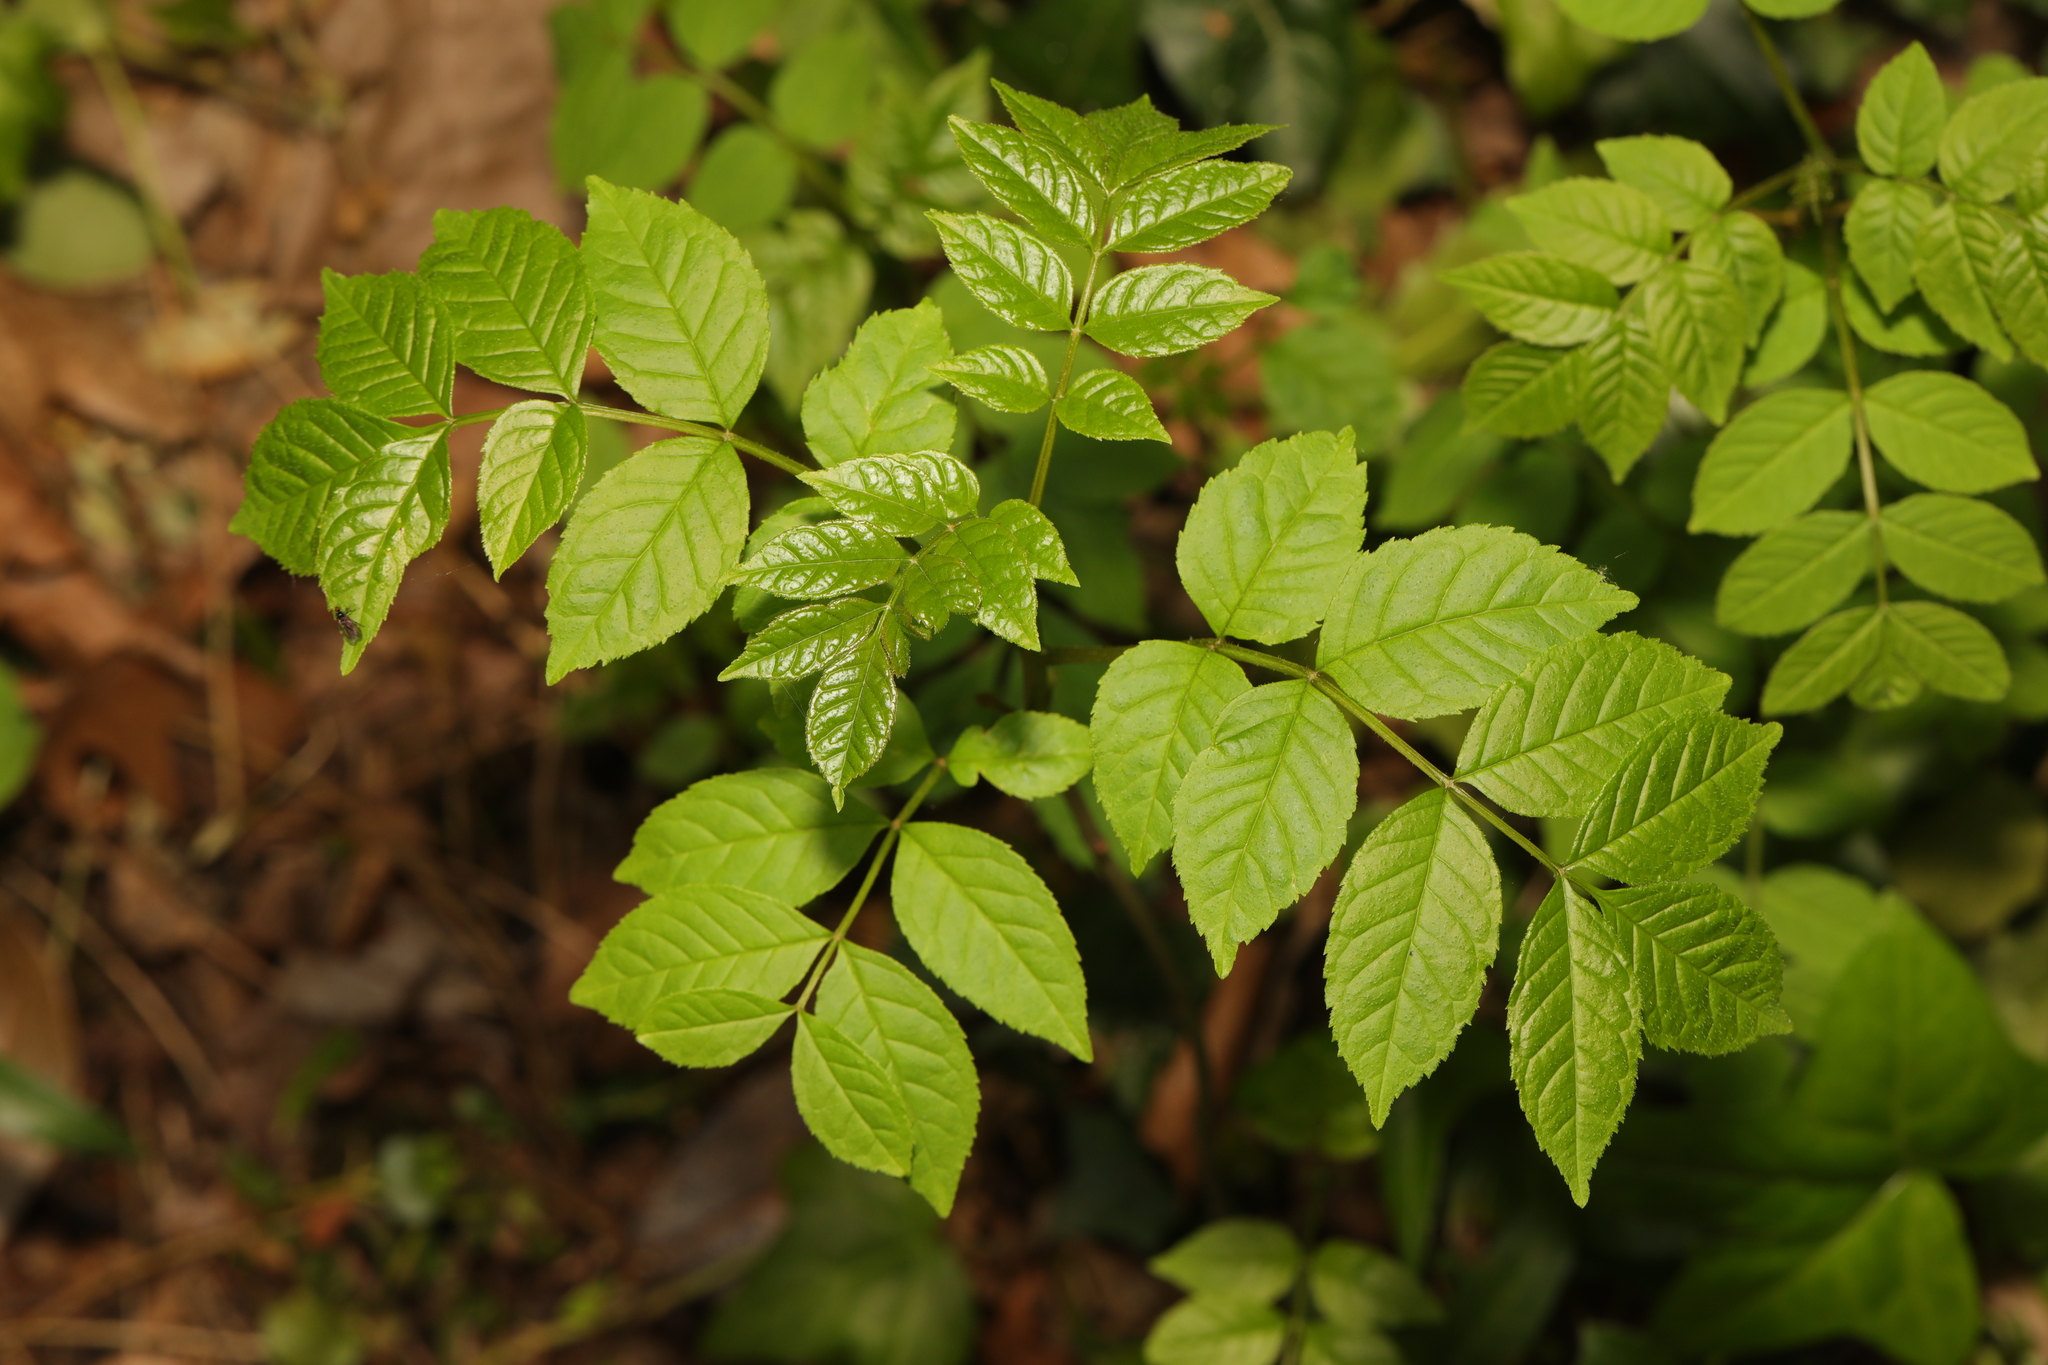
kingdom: Plantae
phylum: Tracheophyta
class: Magnoliopsida
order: Lamiales
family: Oleaceae
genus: Fraxinus
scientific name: Fraxinus excelsior
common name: European ash
